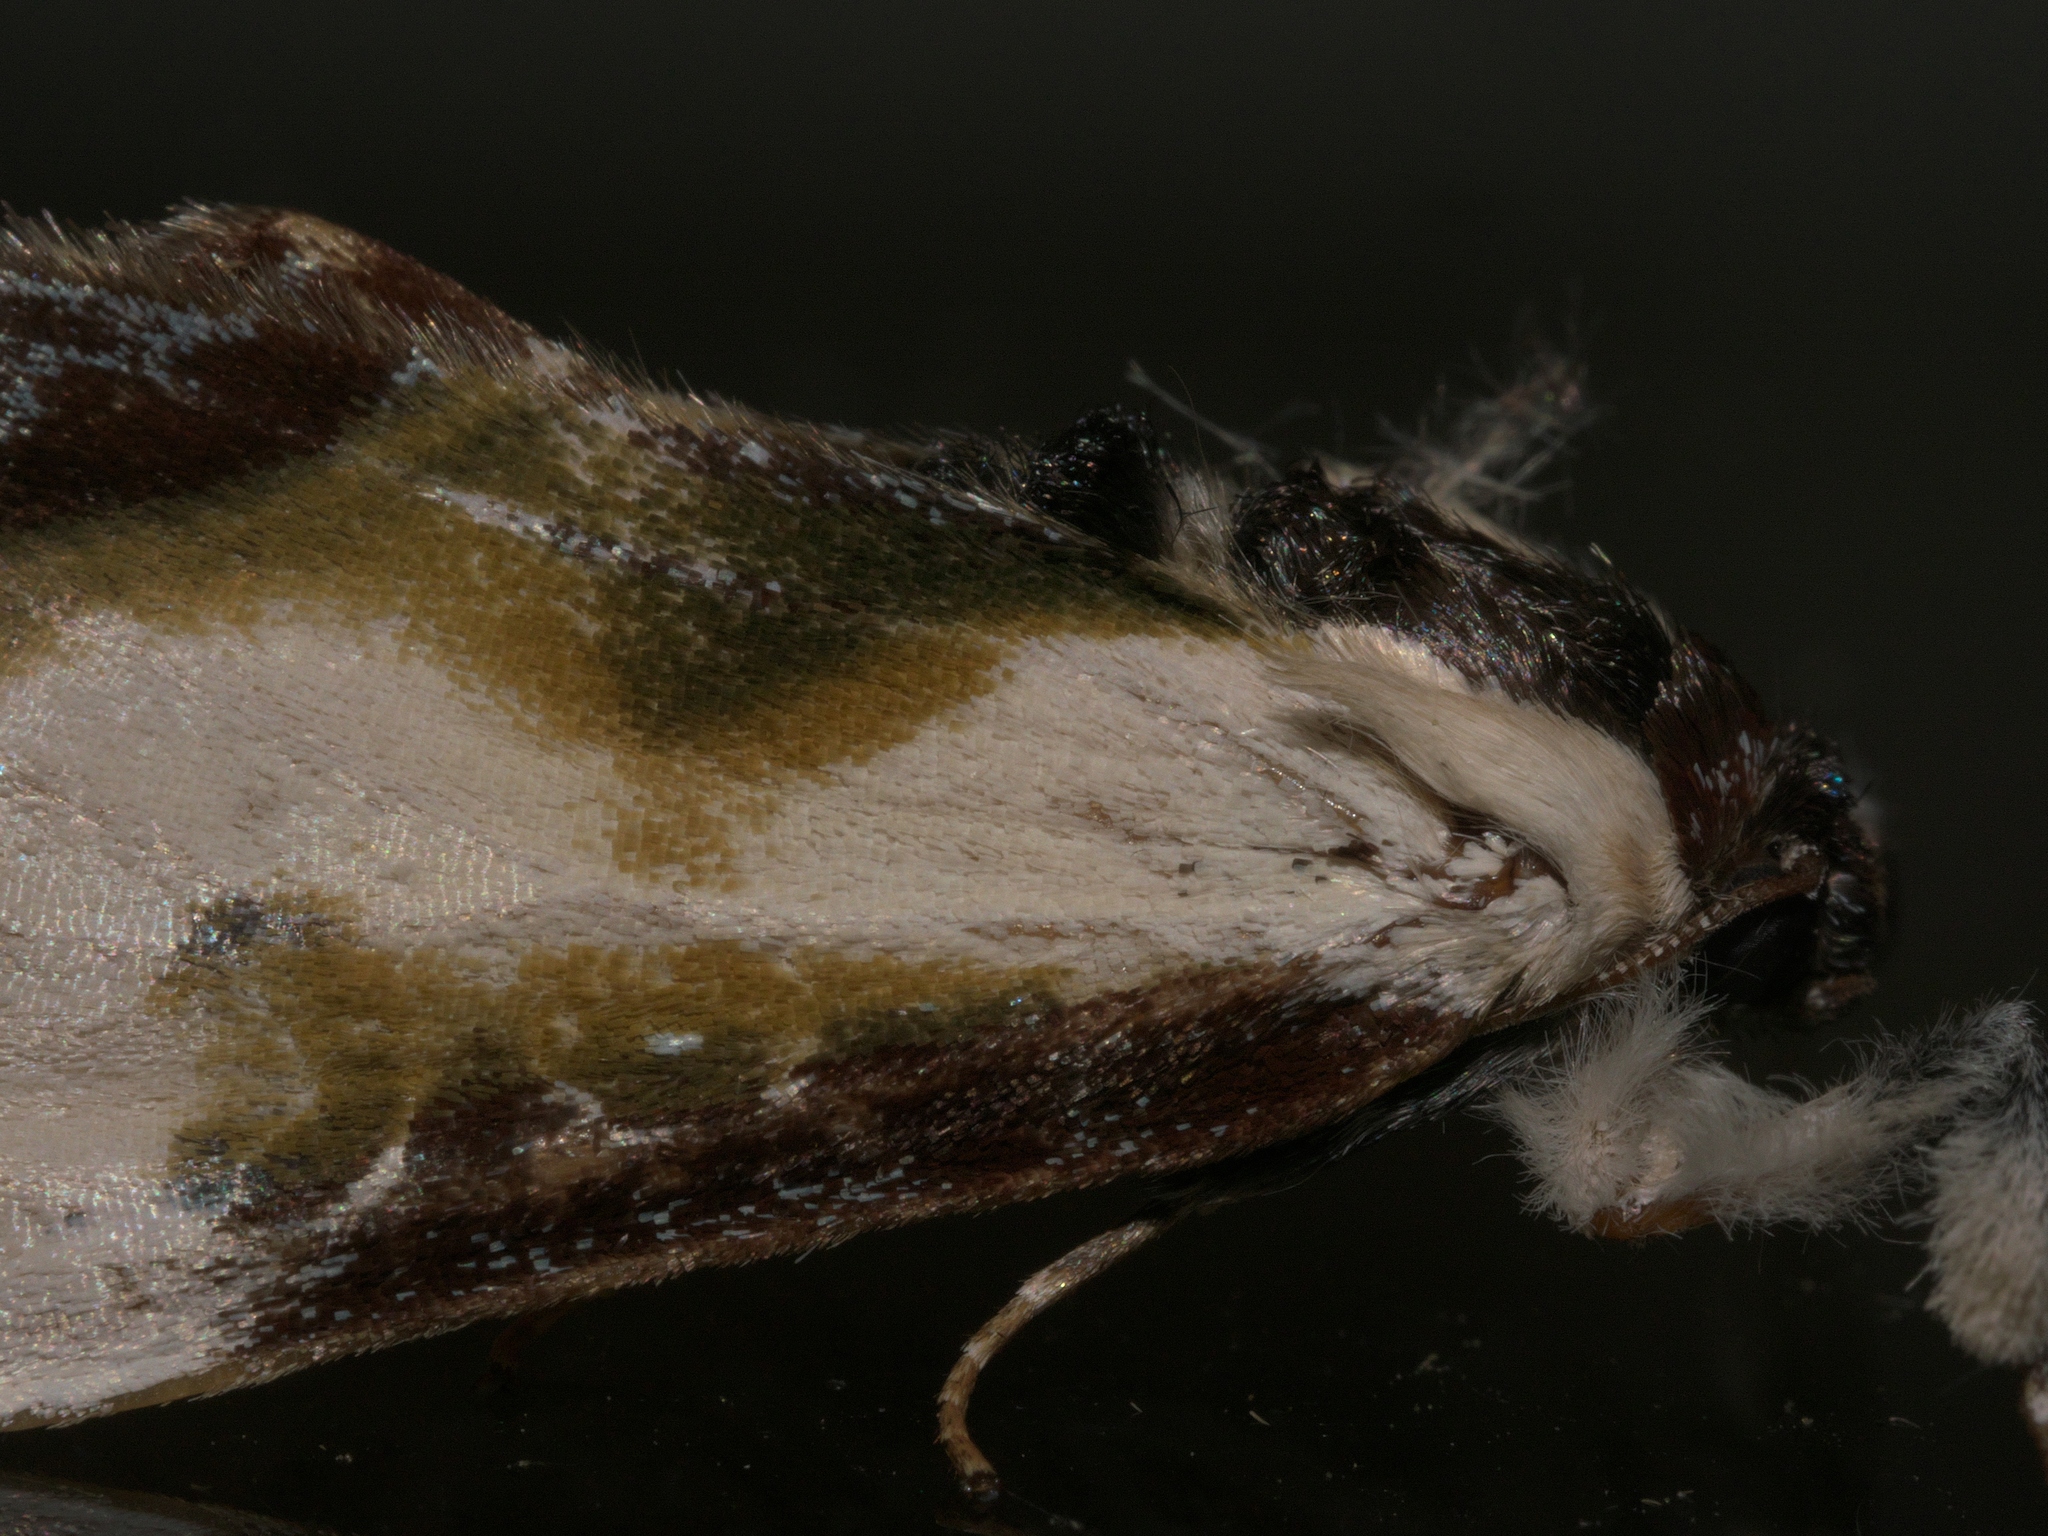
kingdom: Animalia
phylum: Arthropoda
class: Insecta
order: Lepidoptera
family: Noctuidae
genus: Eudryas
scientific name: Eudryas grata
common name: Beautiful wood-nymph
